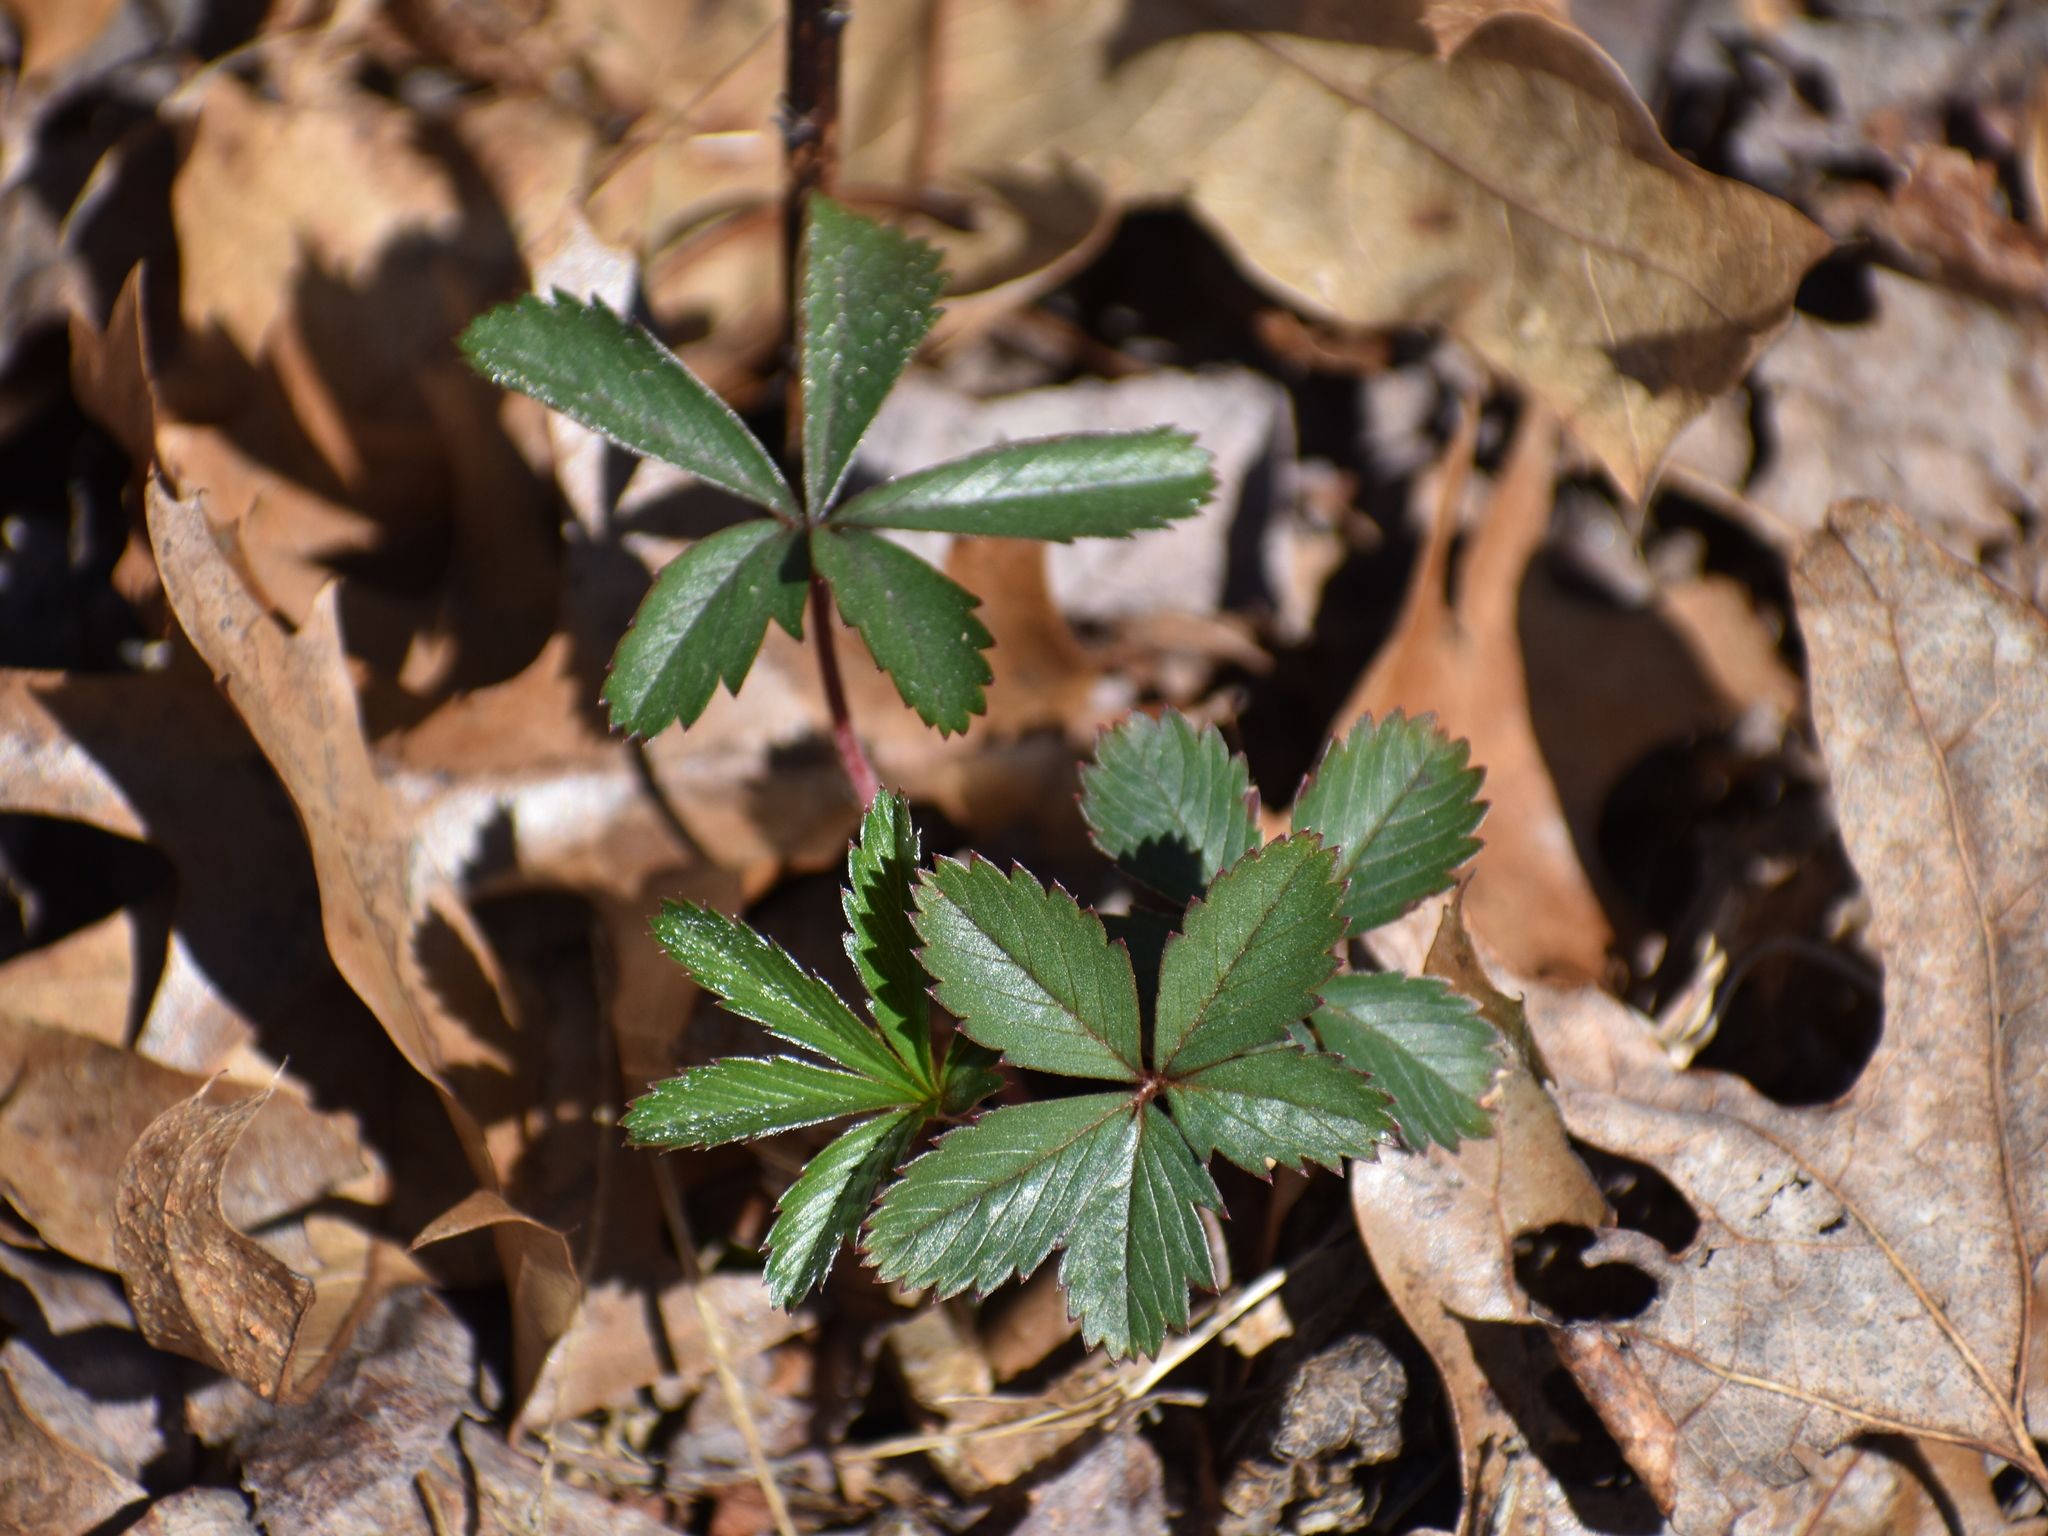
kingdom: Plantae
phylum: Tracheophyta
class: Magnoliopsida
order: Rosales
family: Rosaceae
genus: Potentilla
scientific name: Potentilla simplex
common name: Old field cinquefoil
